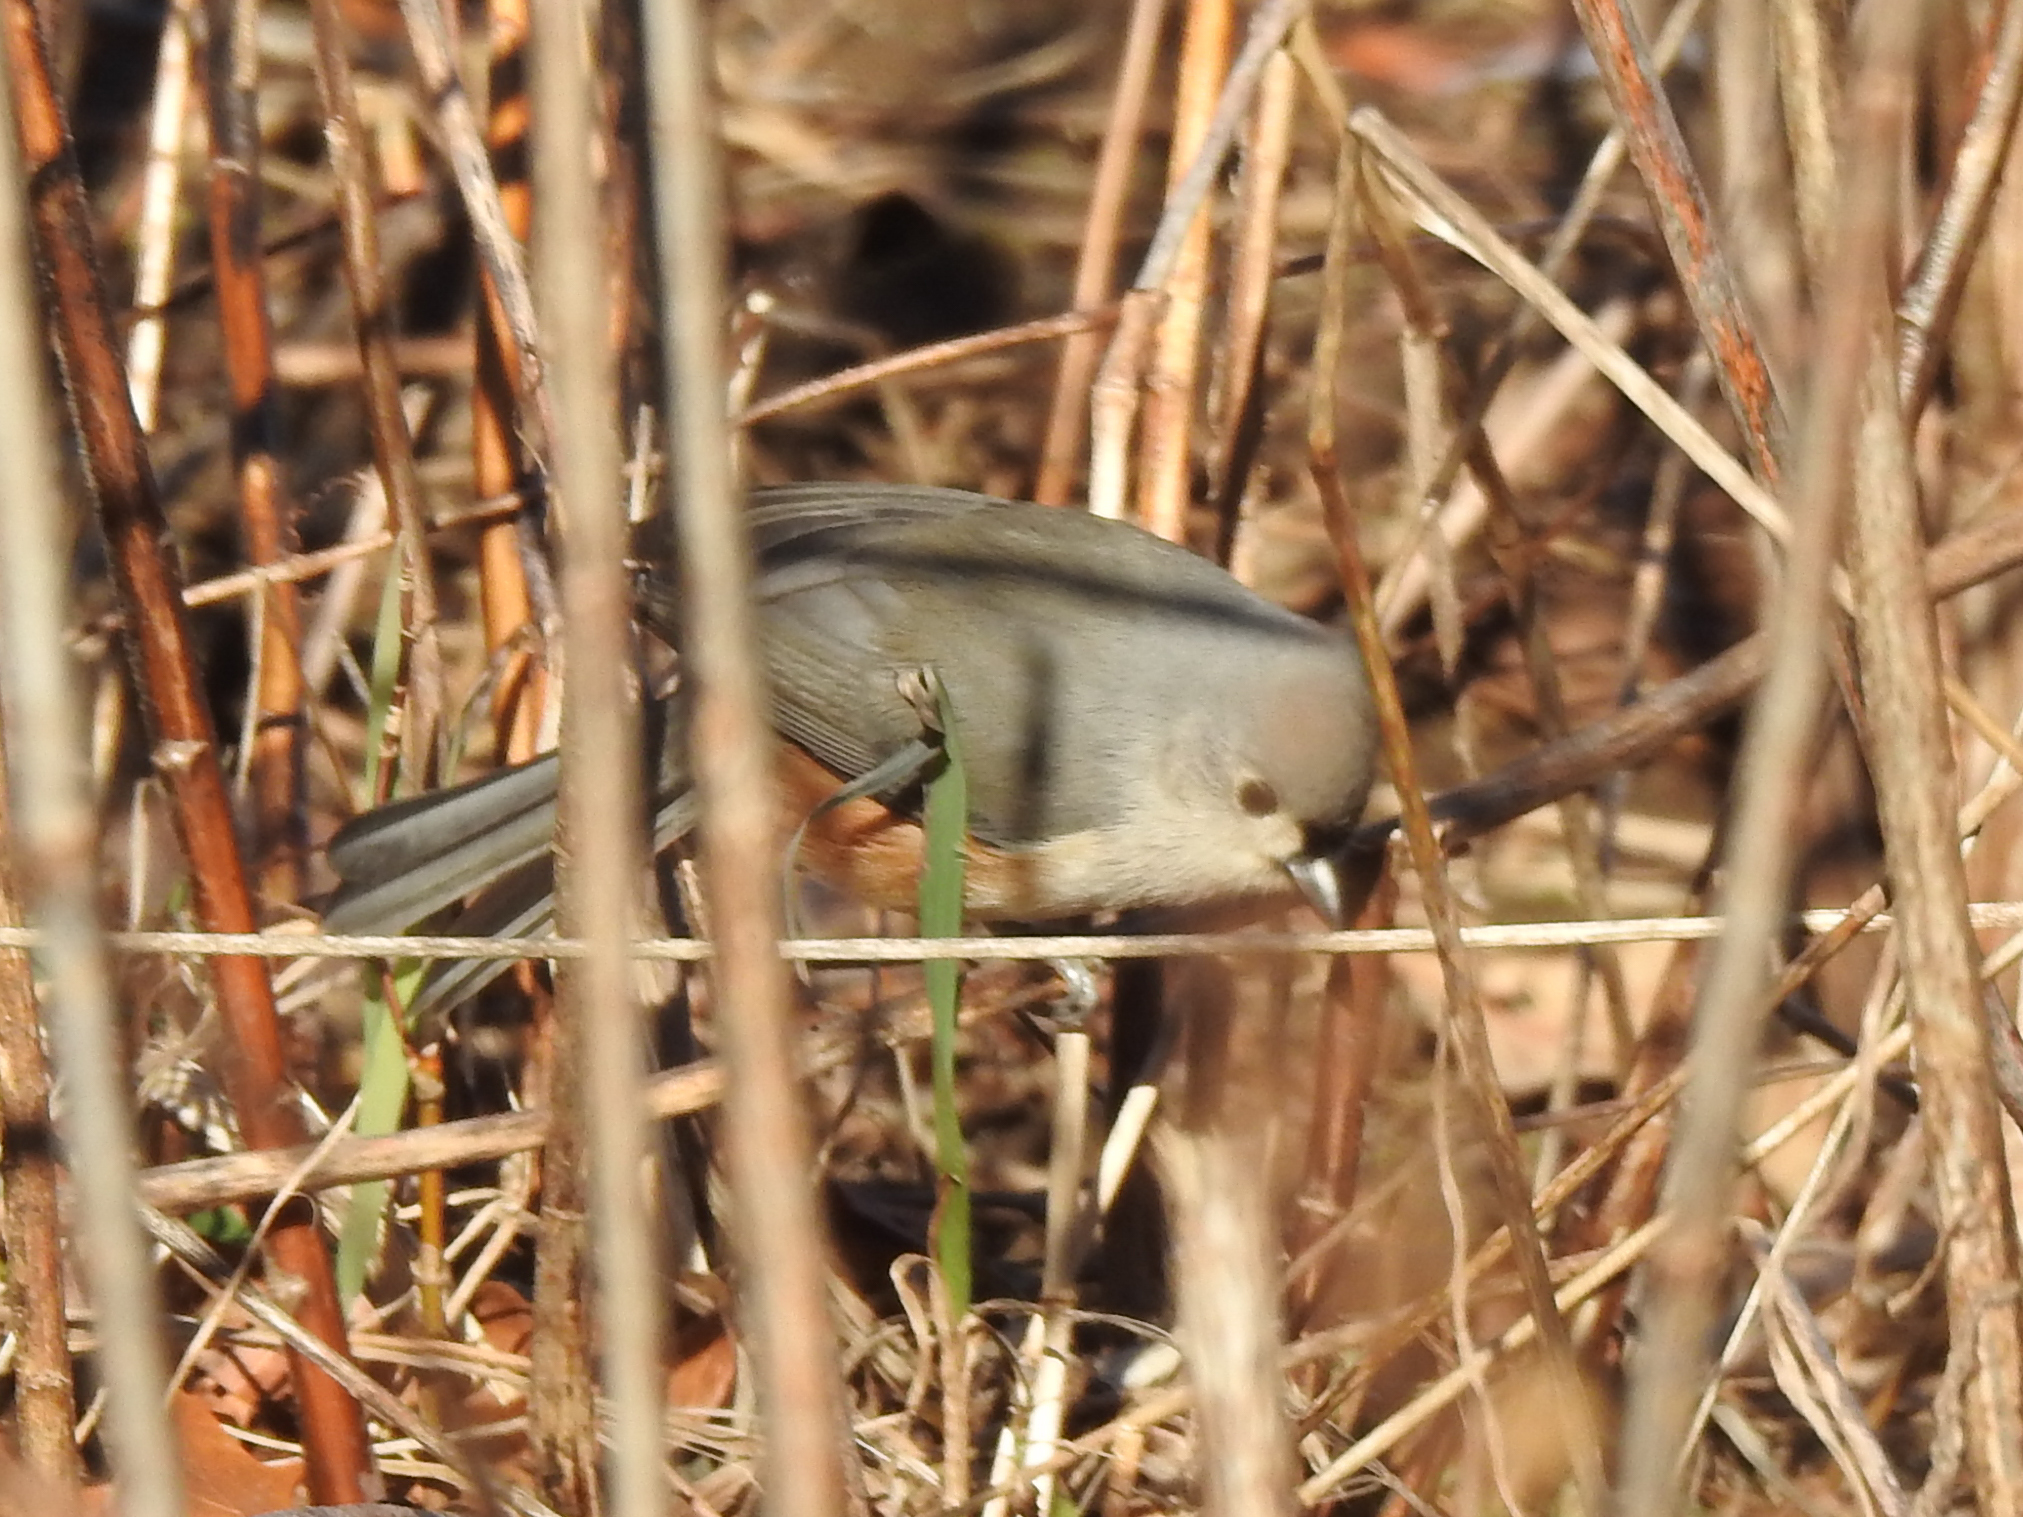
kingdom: Animalia
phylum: Chordata
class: Aves
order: Passeriformes
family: Paridae
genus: Baeolophus
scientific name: Baeolophus bicolor
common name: Tufted titmouse
